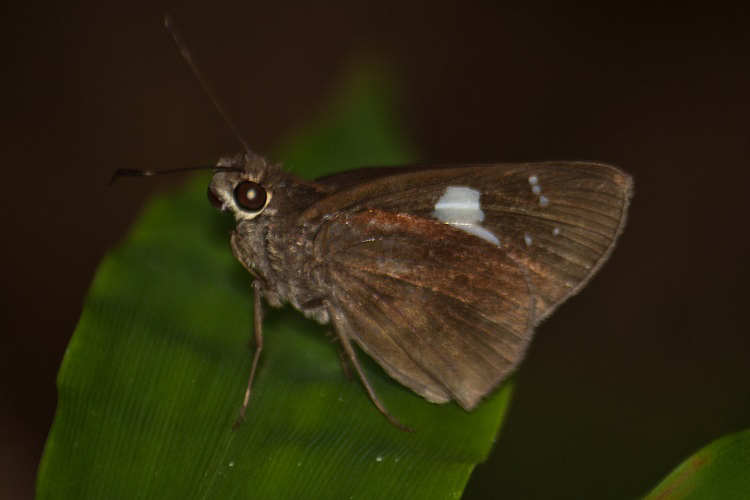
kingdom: Animalia
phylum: Arthropoda
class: Insecta
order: Lepidoptera
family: Hesperiidae
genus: Notocrypta
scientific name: Notocrypta curvifascia
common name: Restricted demon
